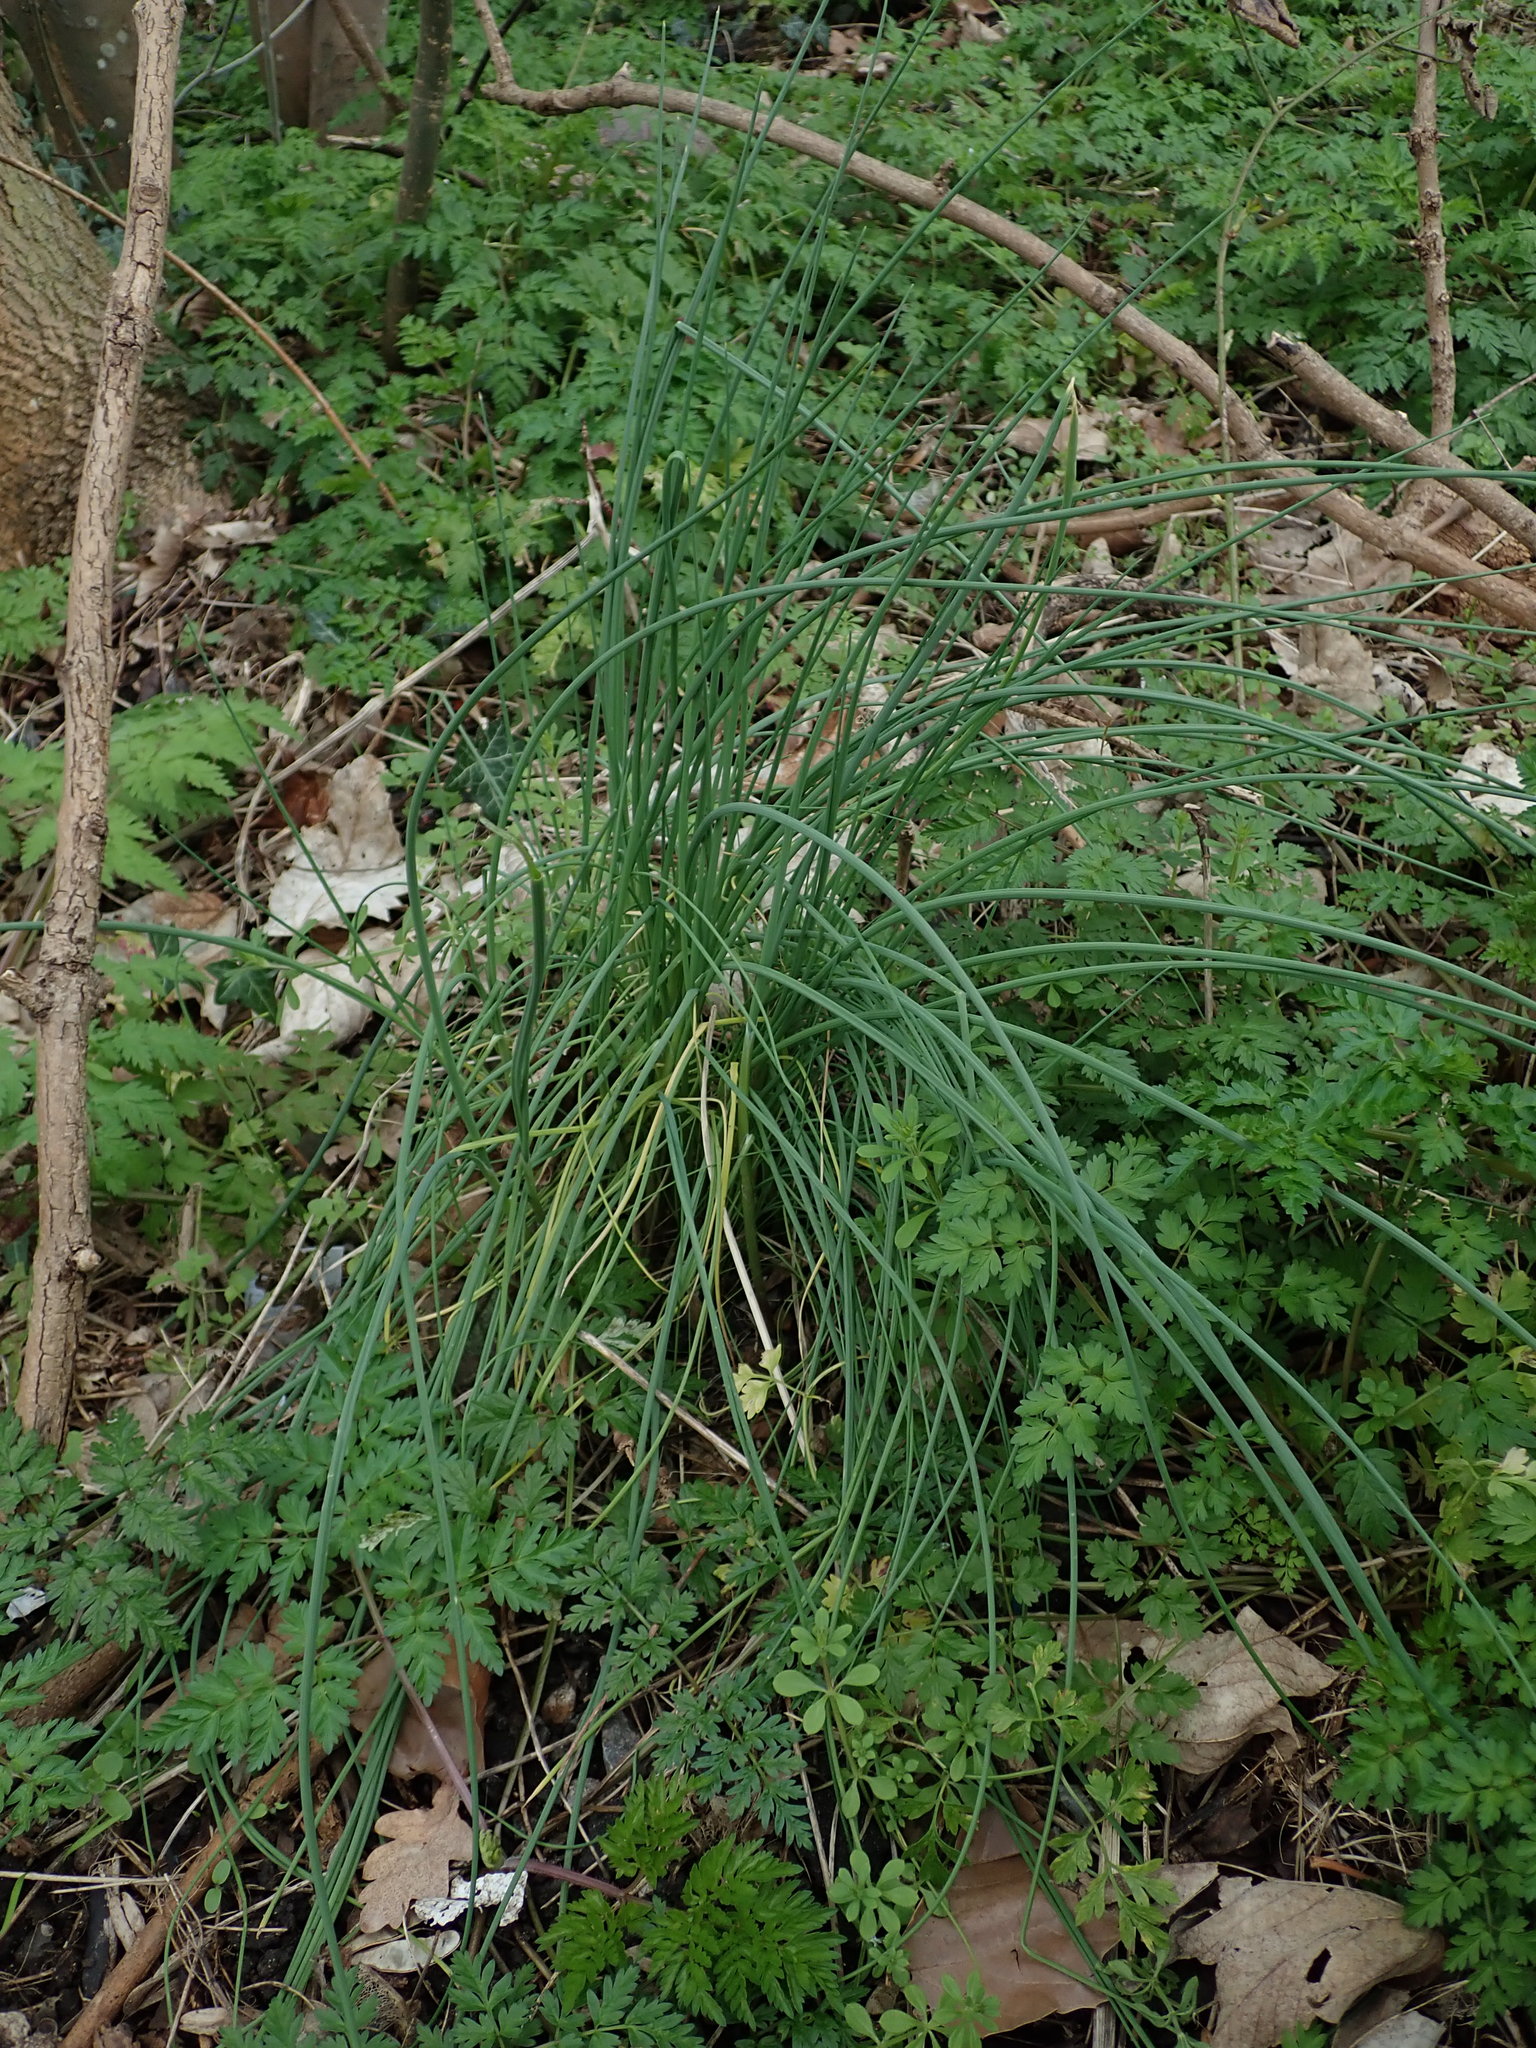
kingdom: Plantae
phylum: Tracheophyta
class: Liliopsida
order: Asparagales
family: Amaryllidaceae
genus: Allium
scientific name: Allium vineale
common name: Crow garlic
